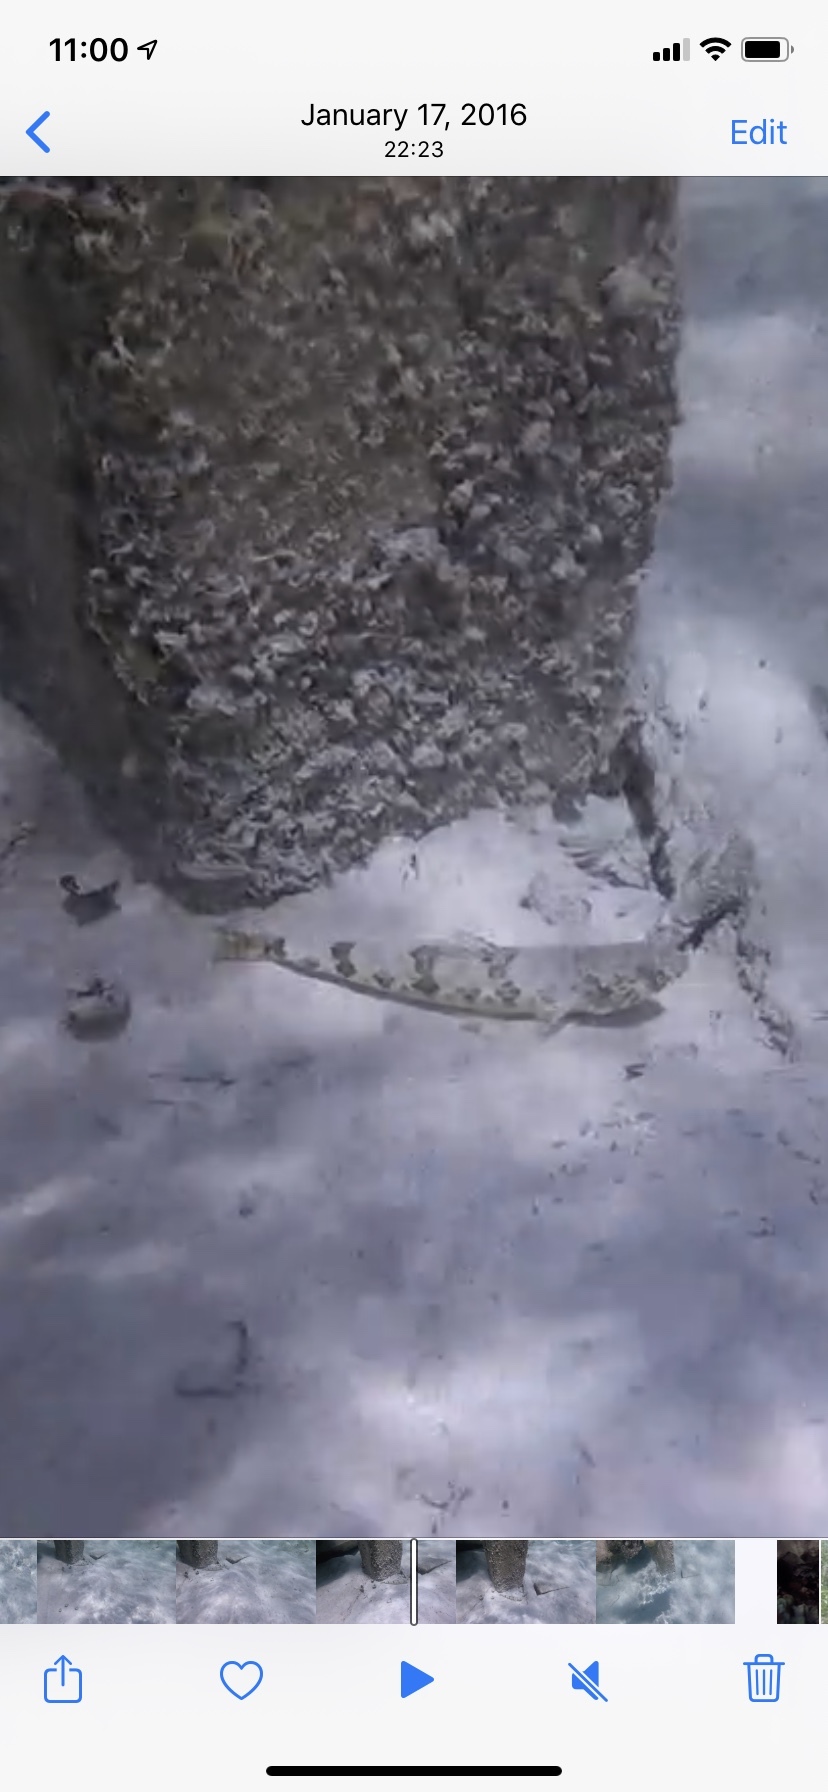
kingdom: Animalia
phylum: Chordata
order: Aulopiformes
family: Synodontidae
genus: Synodus
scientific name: Synodus intermedius
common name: Sand diver
